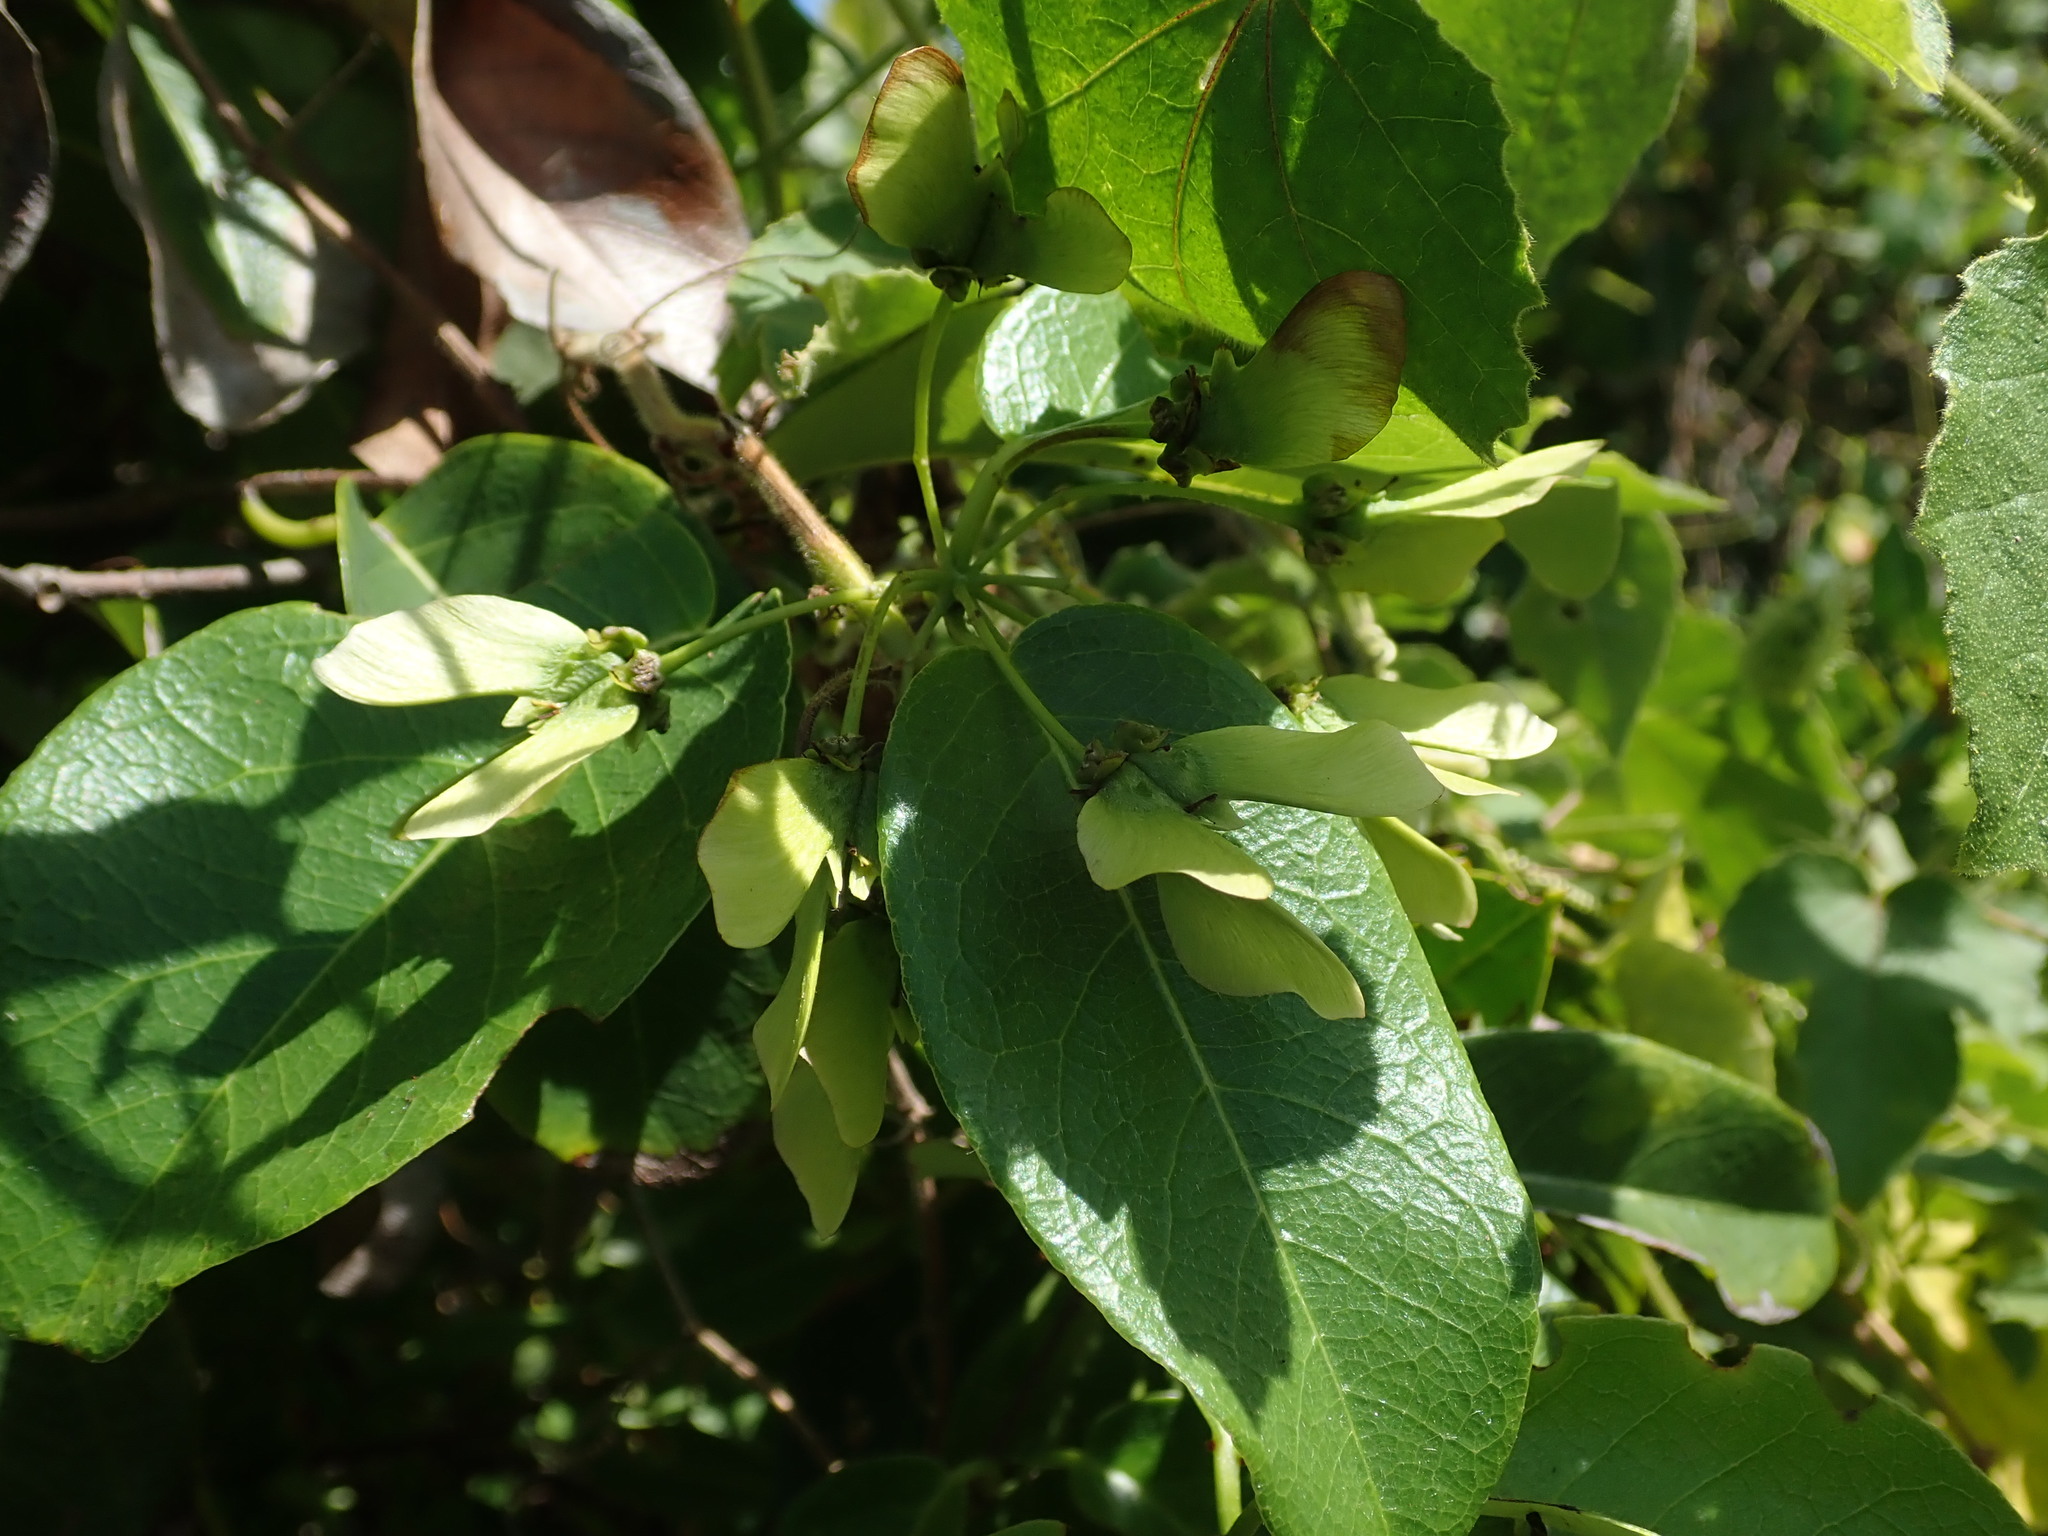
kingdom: Plantae
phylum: Tracheophyta
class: Magnoliopsida
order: Malpighiales
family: Malpighiaceae
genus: Stigmaphyllon
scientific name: Stigmaphyllon emarginatum
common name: Monarch amazonvine
